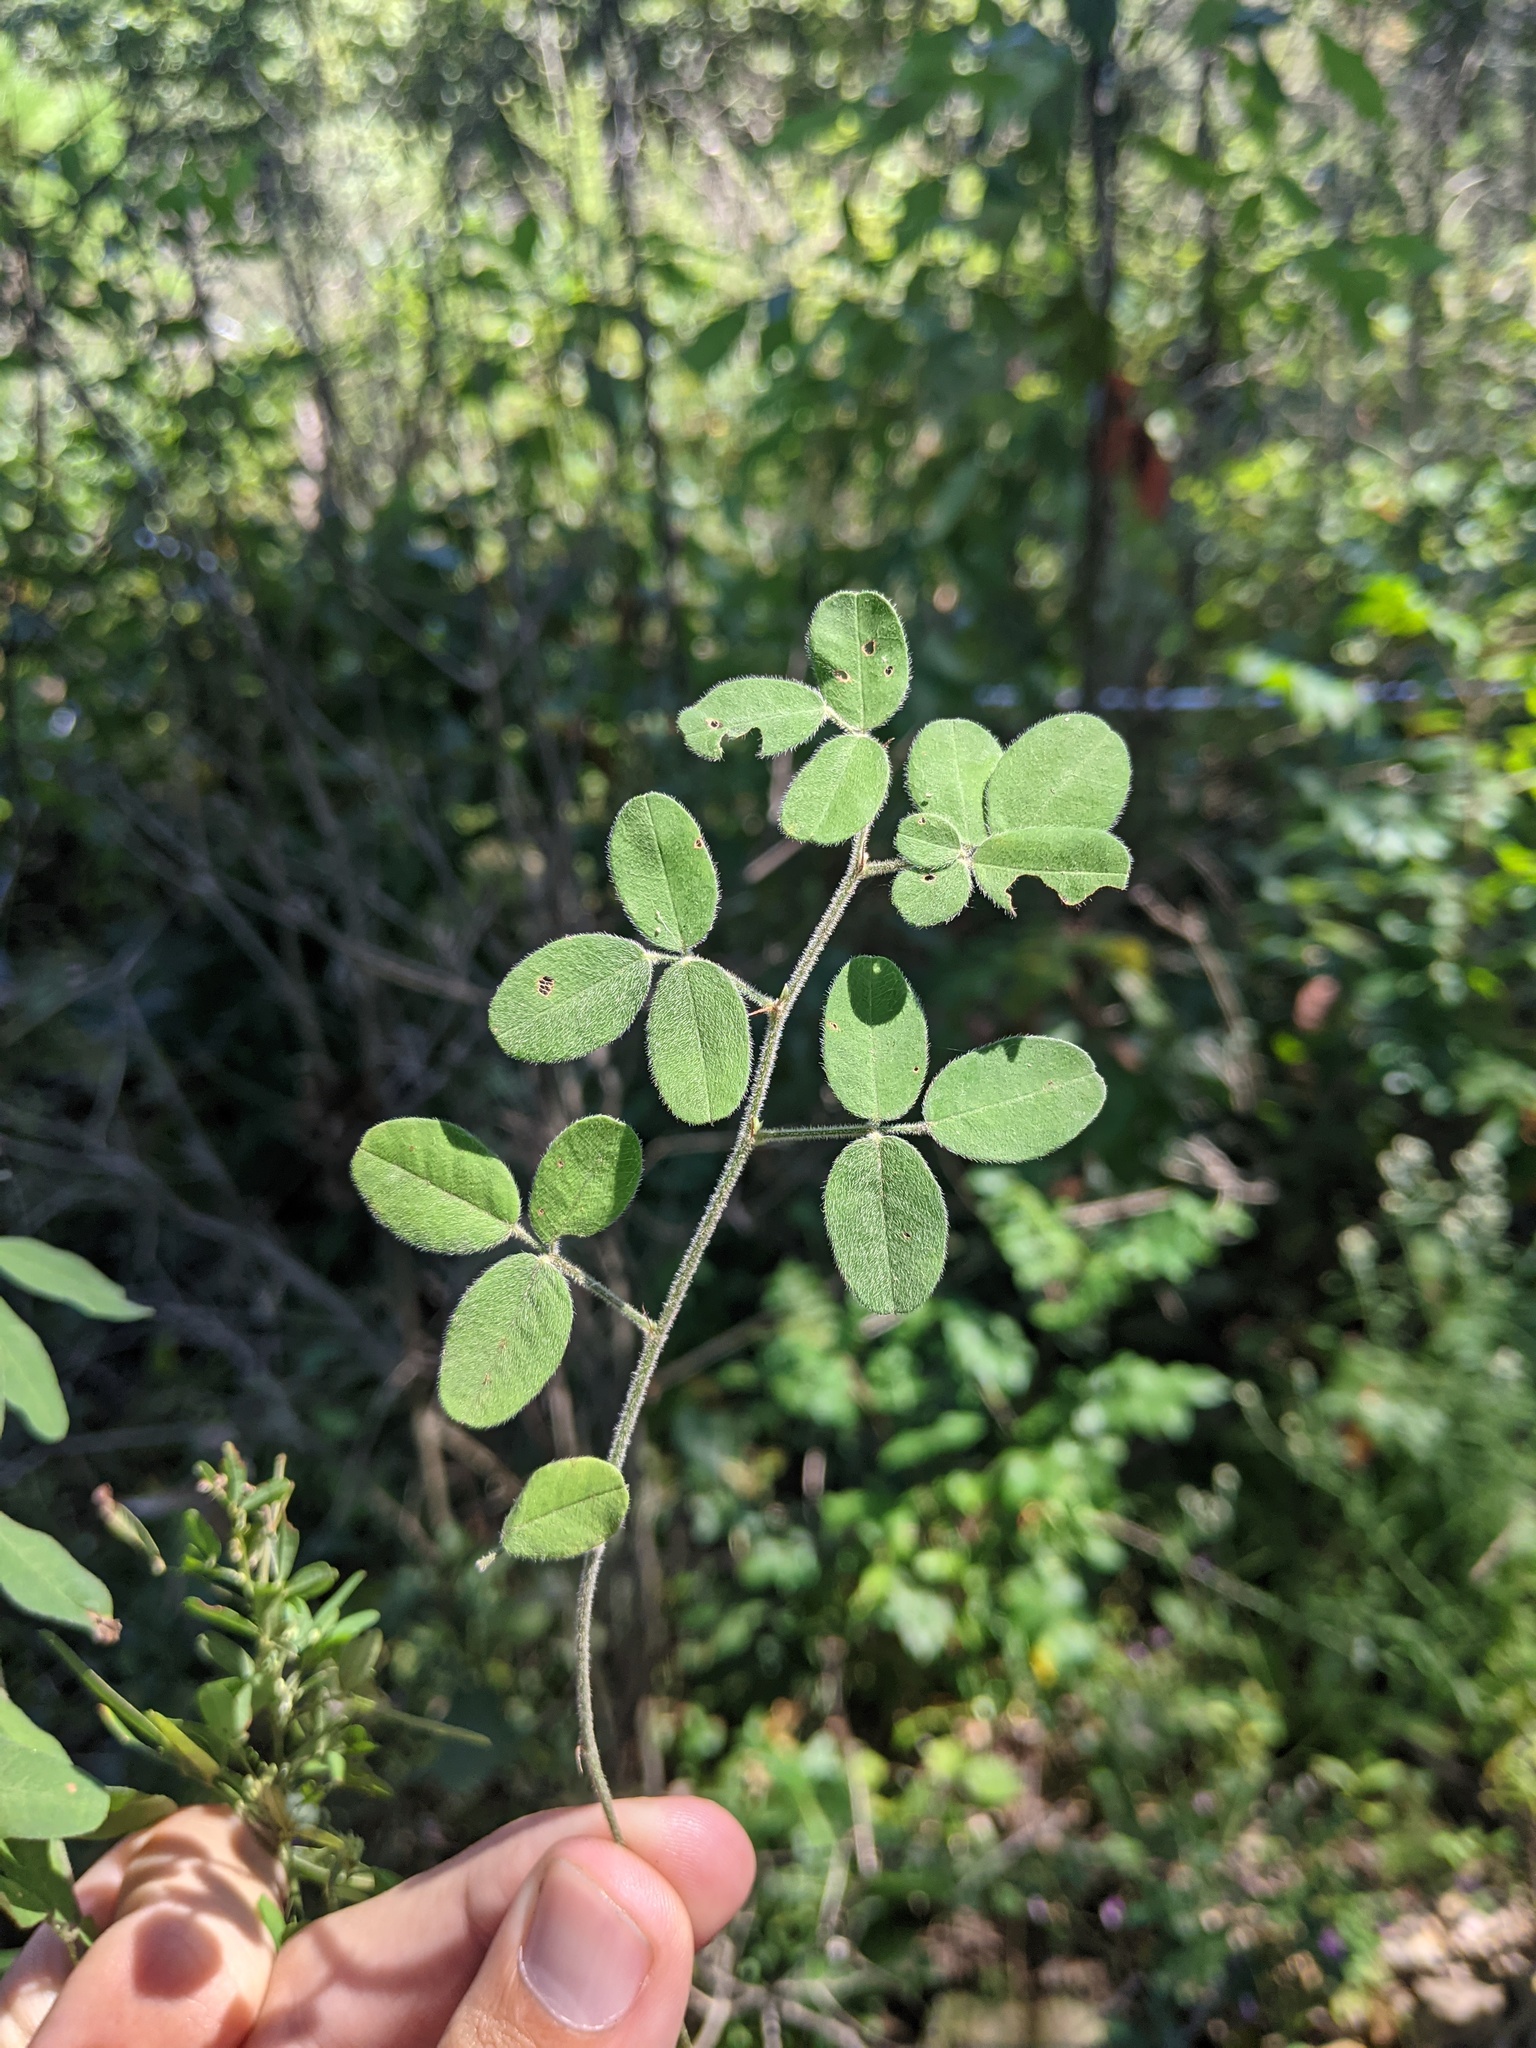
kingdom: Plantae
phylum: Tracheophyta
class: Magnoliopsida
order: Fabales
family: Fabaceae
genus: Lespedeza
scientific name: Lespedeza procumbens
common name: Downy trailing bush-clover
